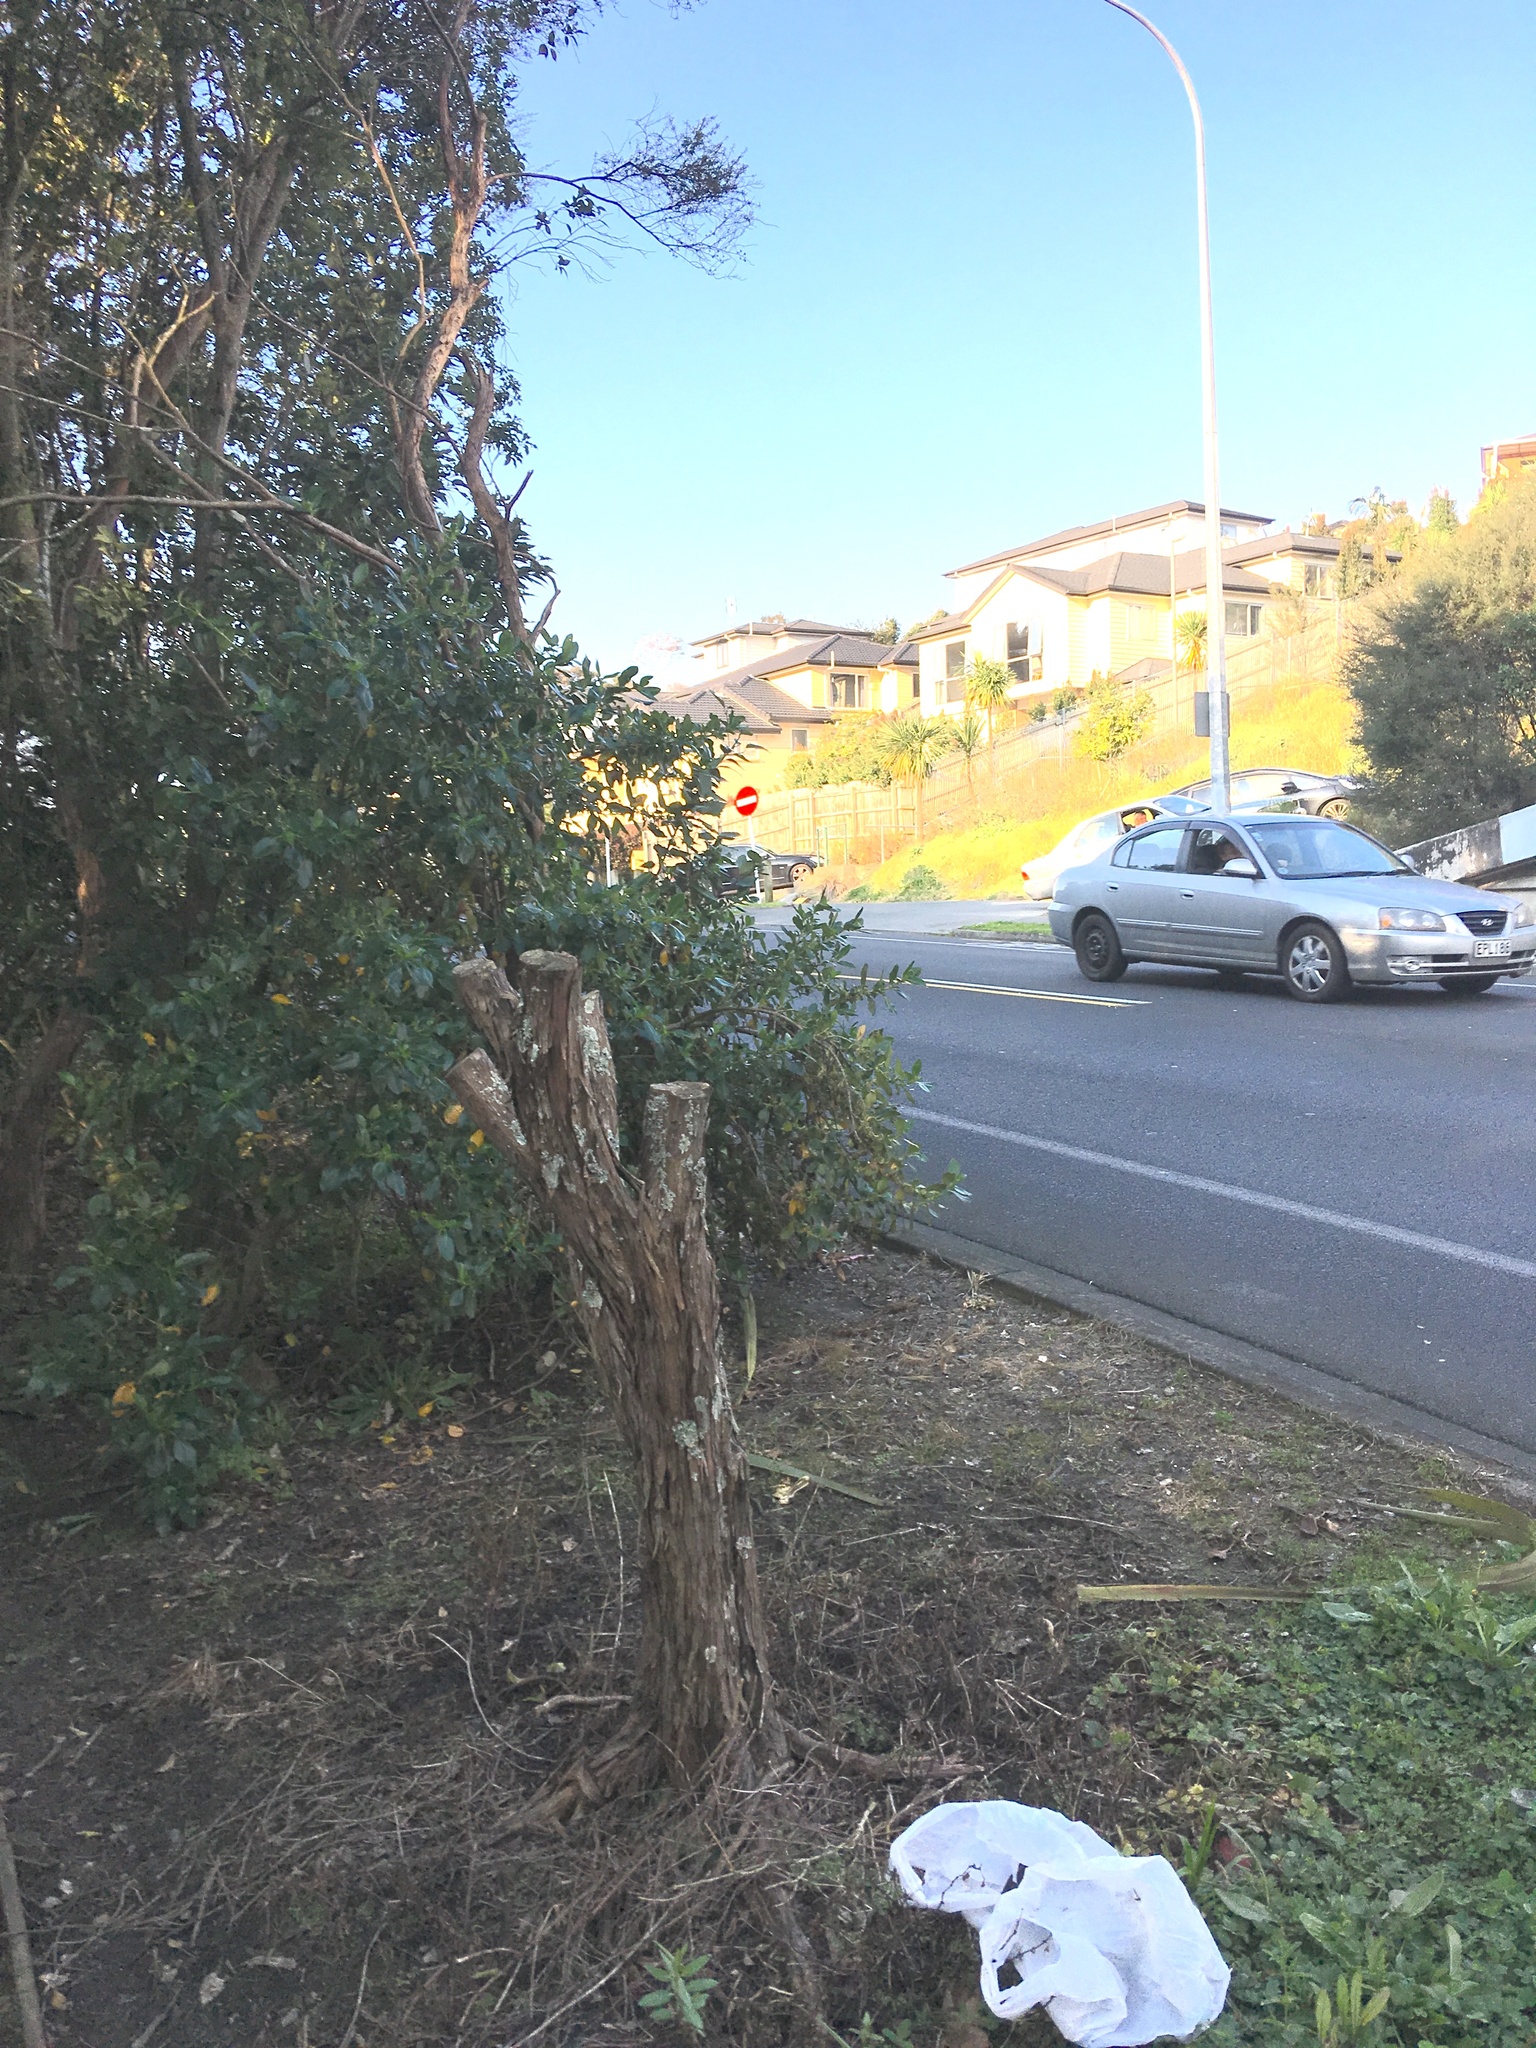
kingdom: Plantae
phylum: Tracheophyta
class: Magnoliopsida
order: Gentianales
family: Rubiaceae
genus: Coprosma
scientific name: Coprosma robusta
